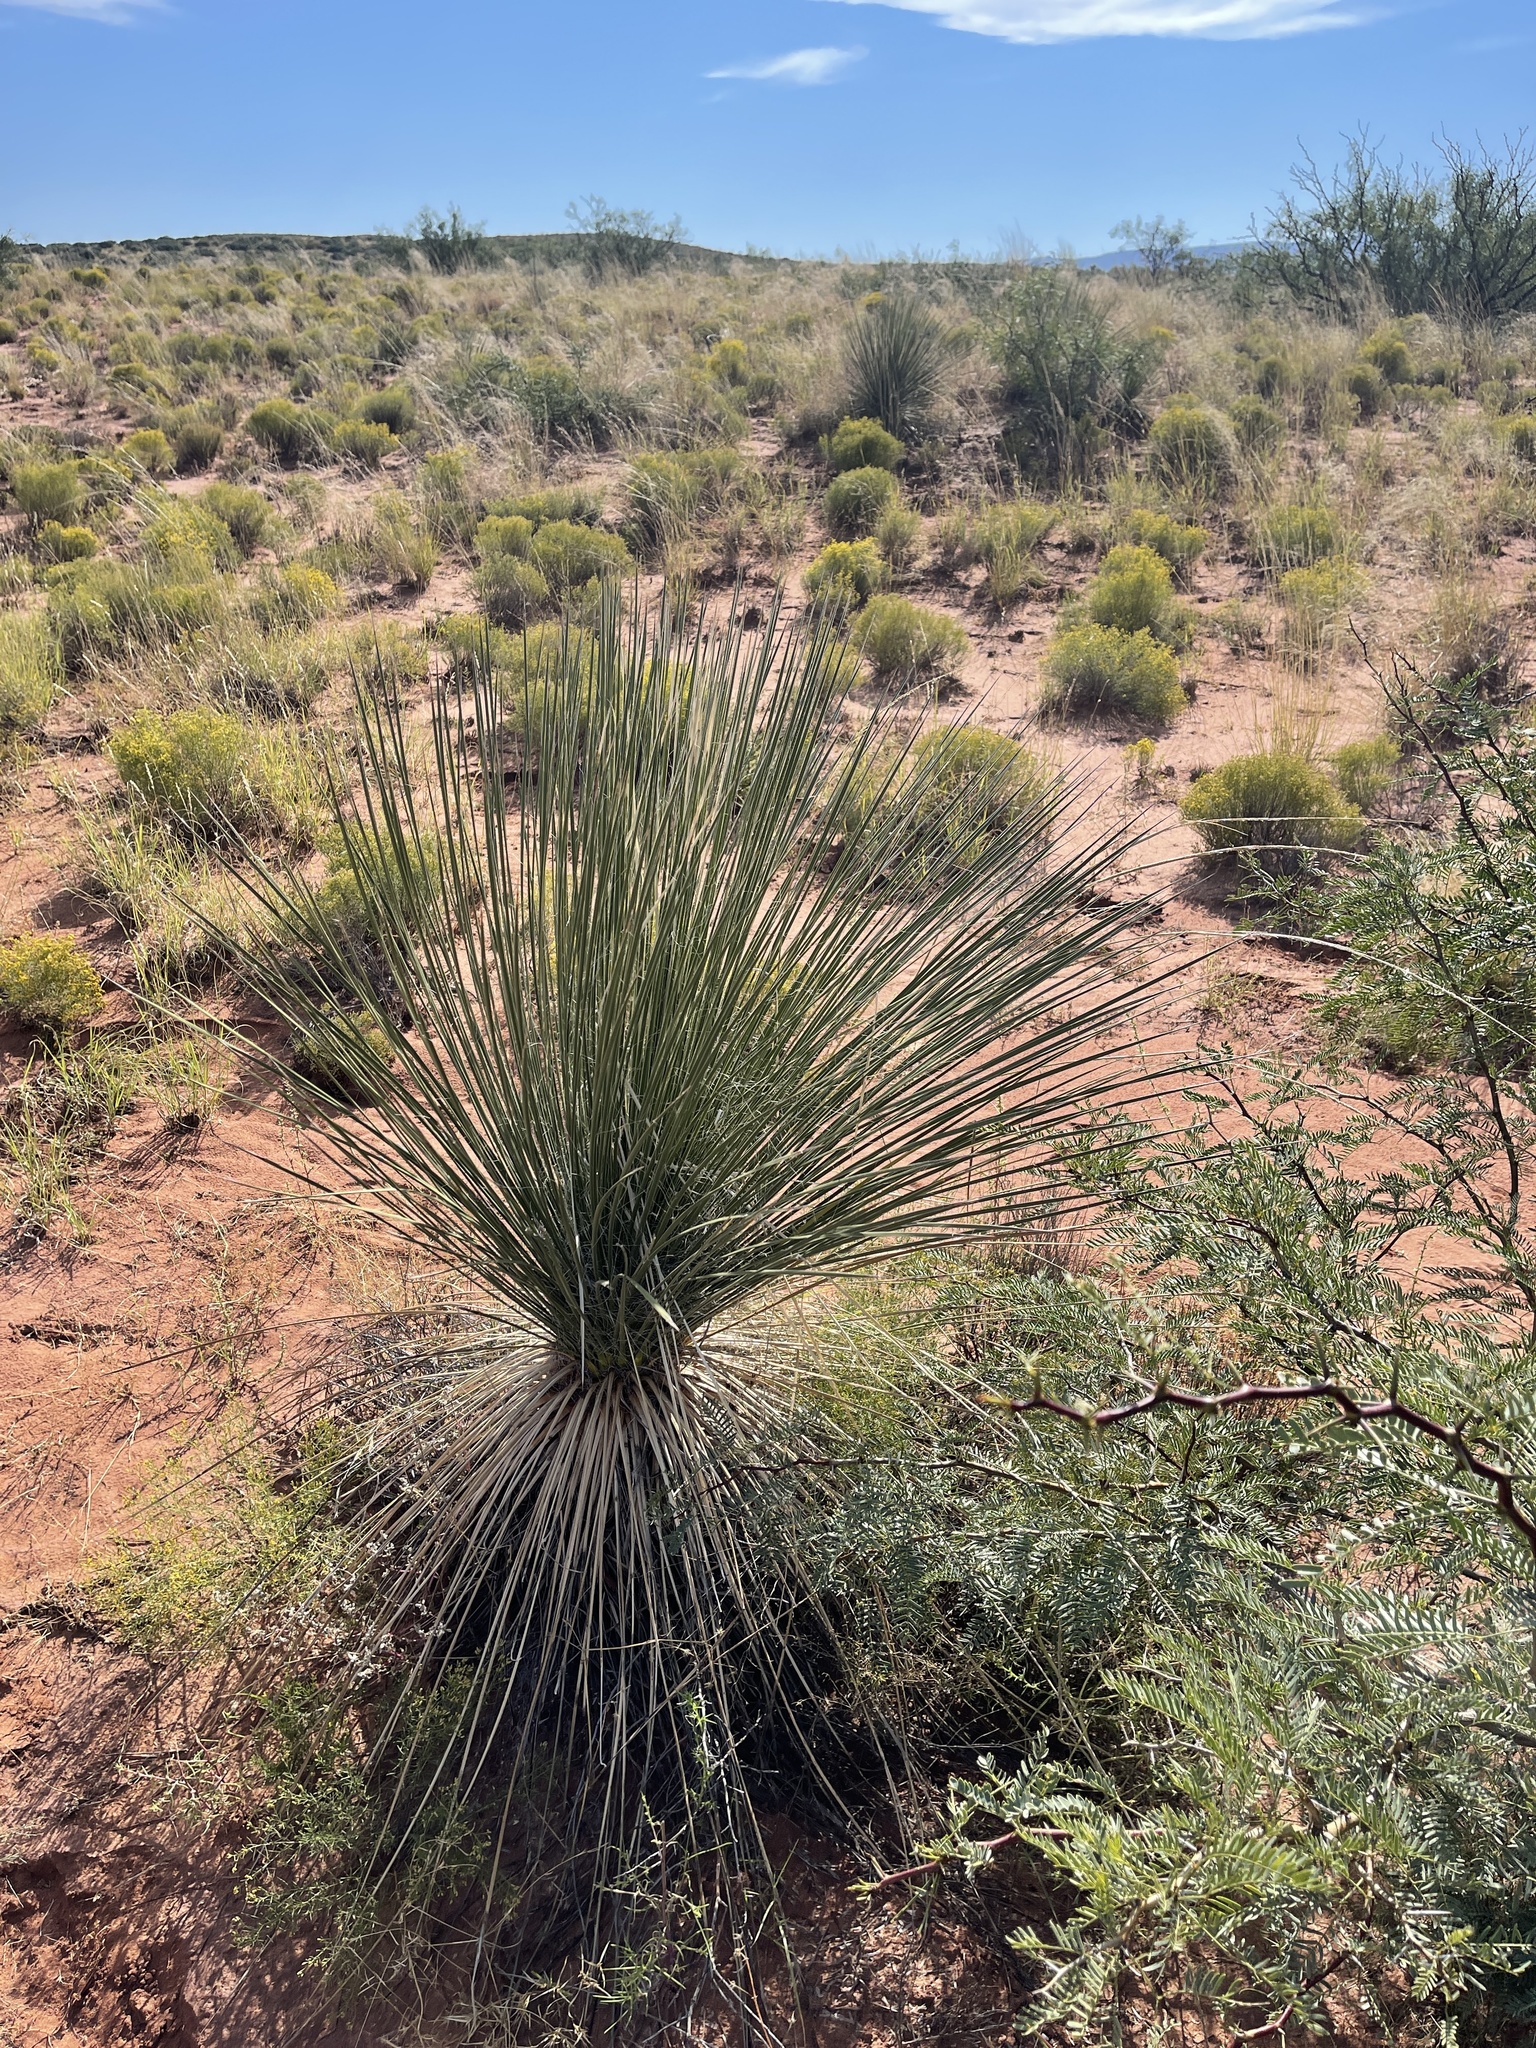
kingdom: Plantae
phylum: Tracheophyta
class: Liliopsida
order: Asparagales
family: Asparagaceae
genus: Yucca
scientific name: Yucca elata
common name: Palmella
